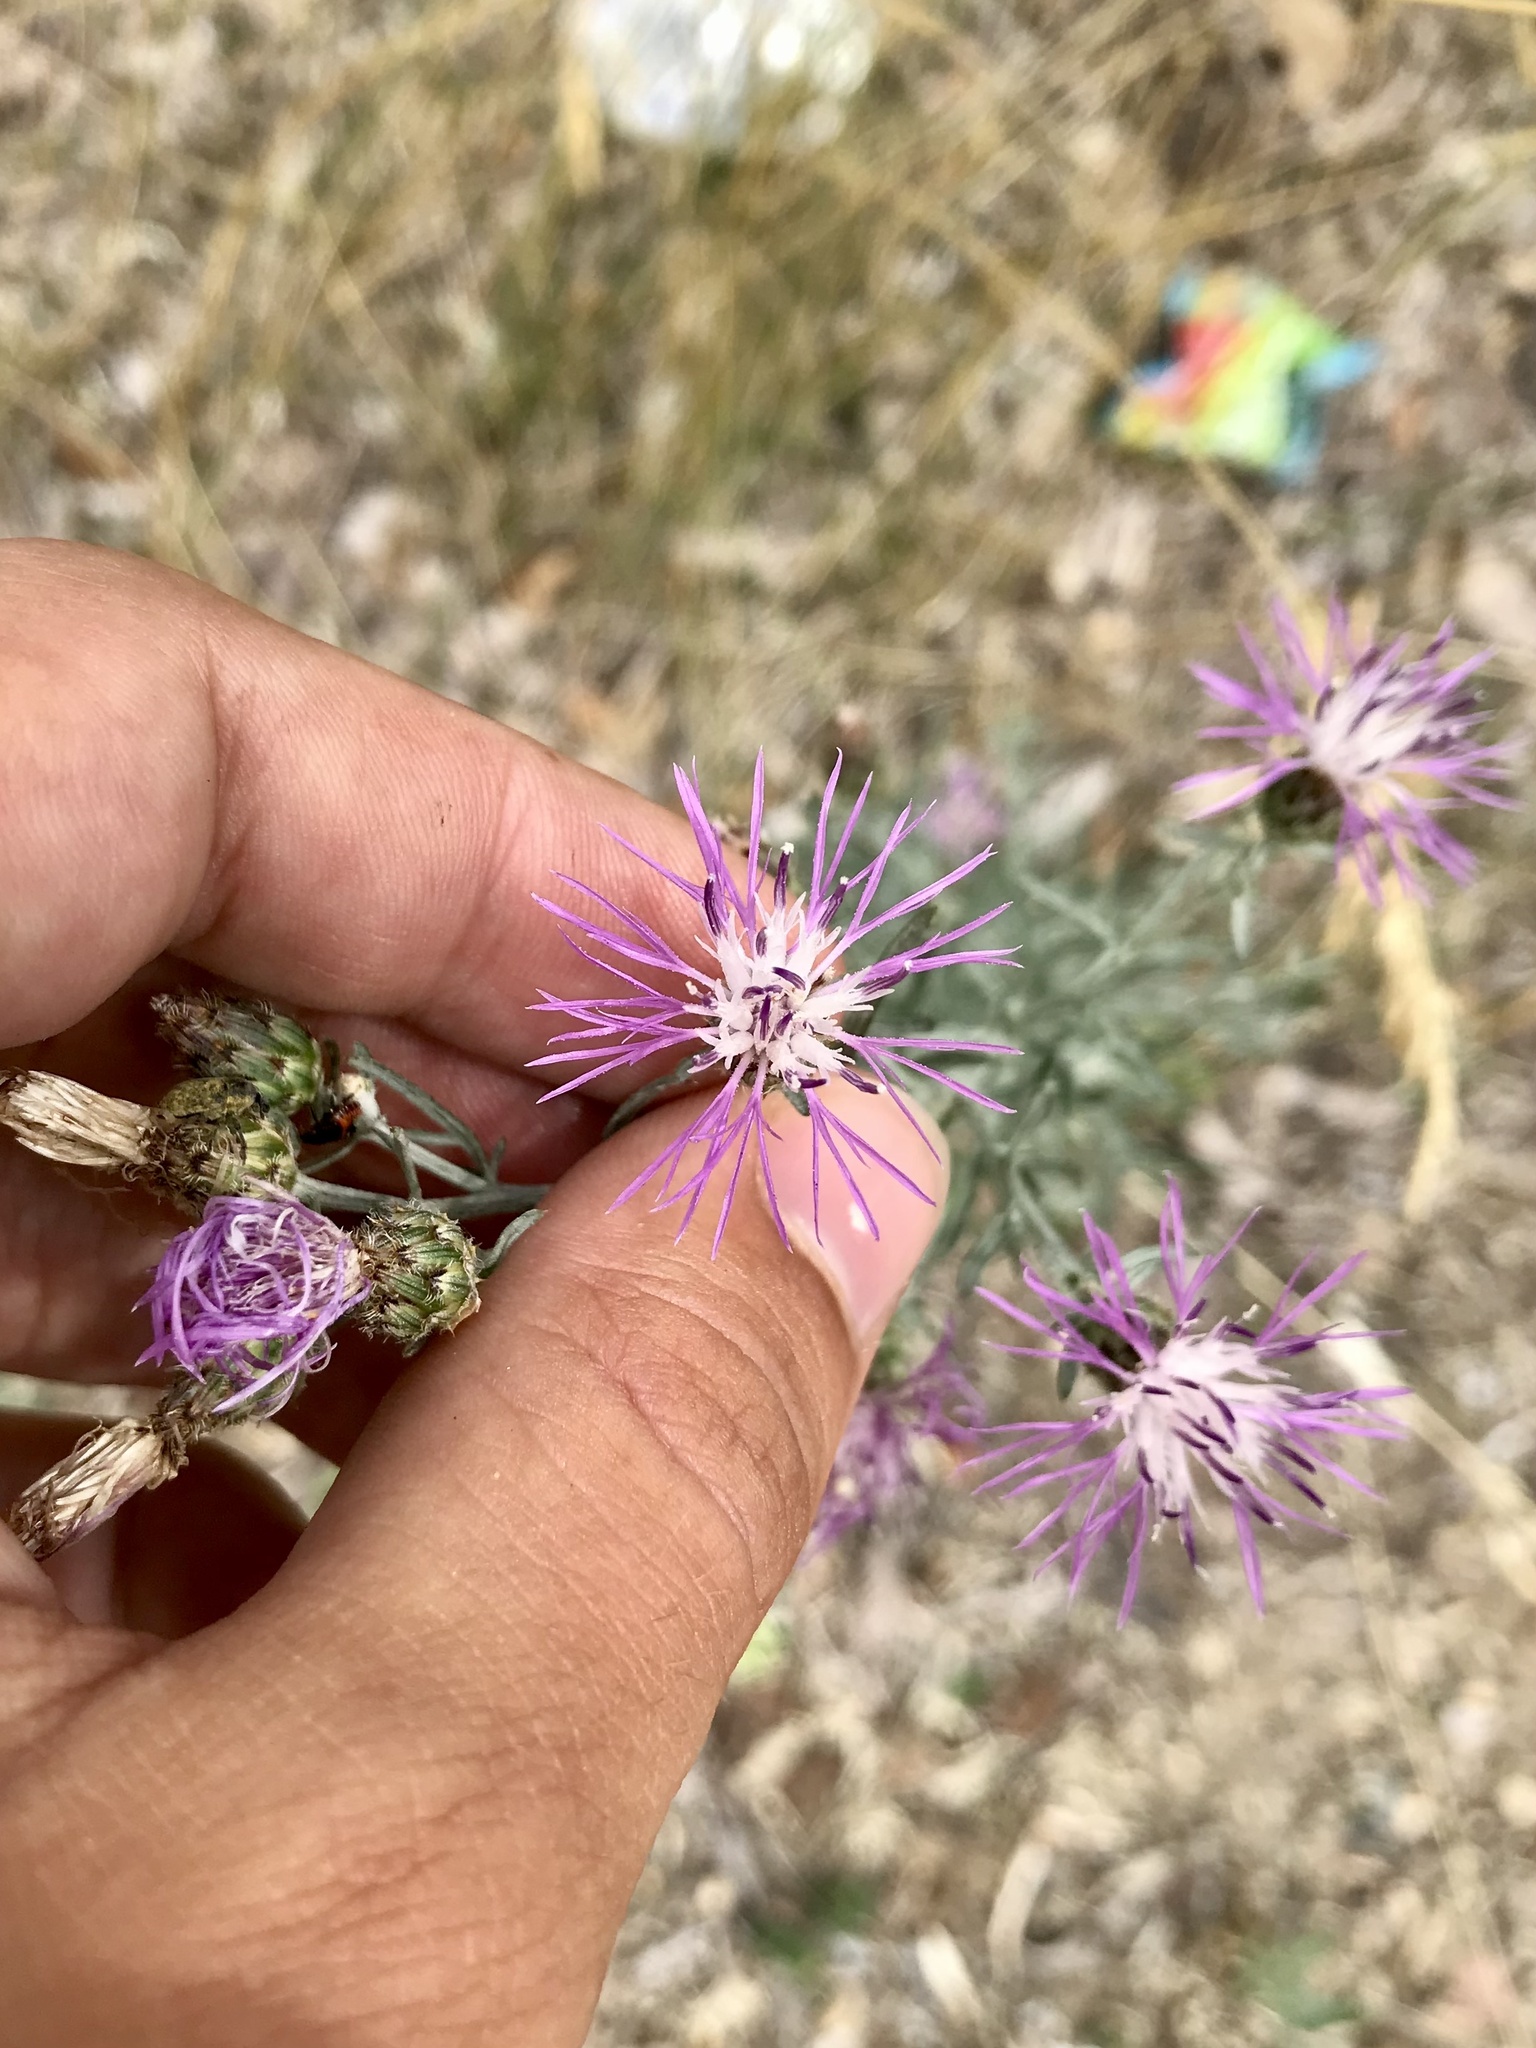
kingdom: Plantae
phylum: Tracheophyta
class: Magnoliopsida
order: Asterales
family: Asteraceae
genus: Centaurea
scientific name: Centaurea stoebe
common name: Spotted knapweed
